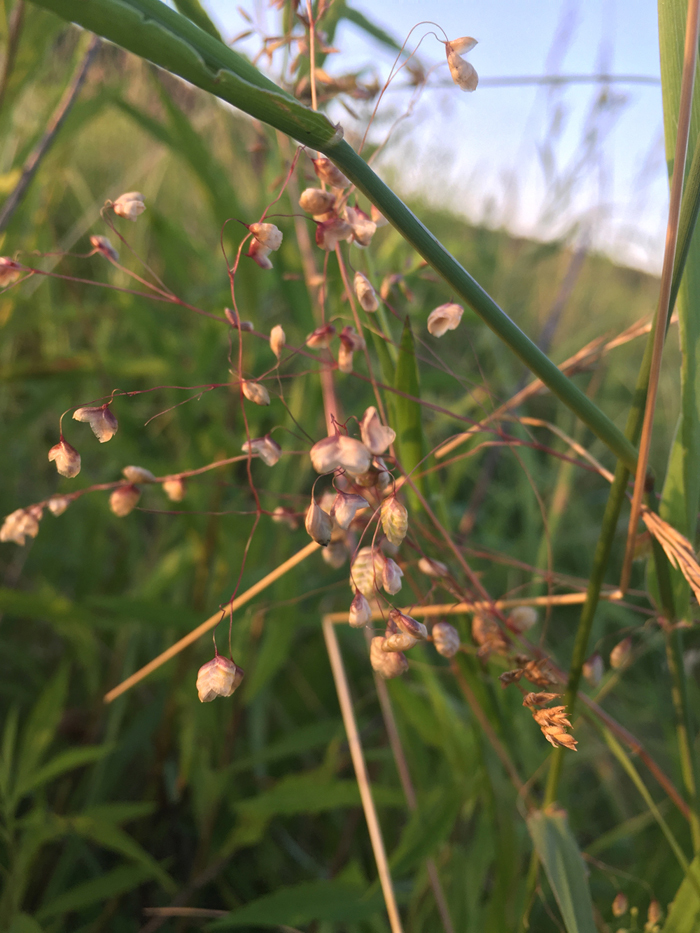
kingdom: Plantae
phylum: Tracheophyta
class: Liliopsida
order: Poales
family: Poaceae
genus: Briza
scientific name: Briza media
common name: Quaking grass
